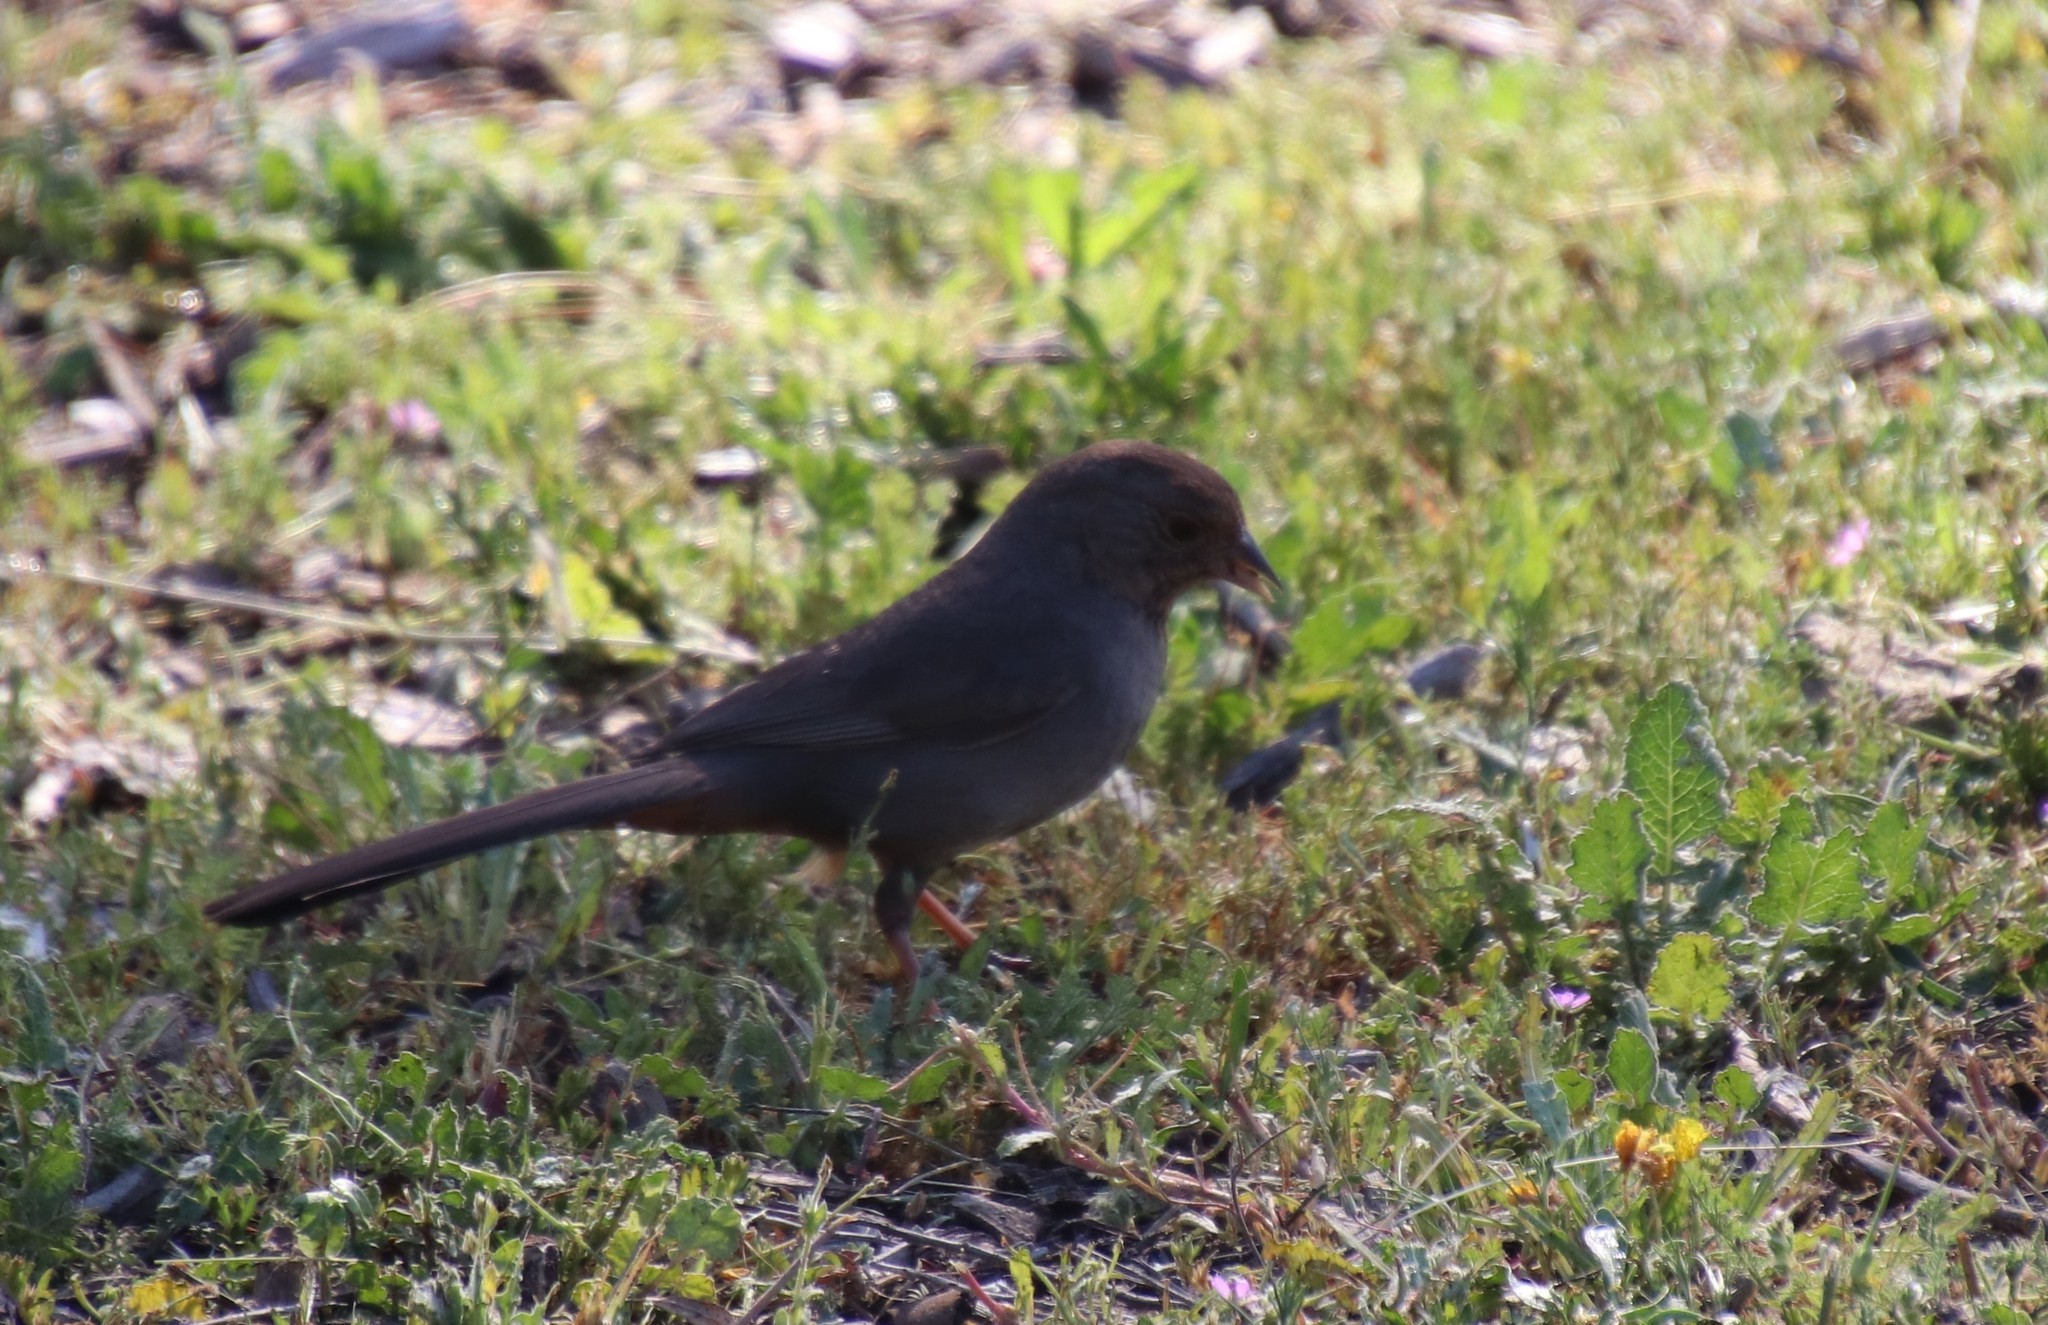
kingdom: Animalia
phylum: Chordata
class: Aves
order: Passeriformes
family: Passerellidae
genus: Melozone
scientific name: Melozone crissalis
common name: California towhee
